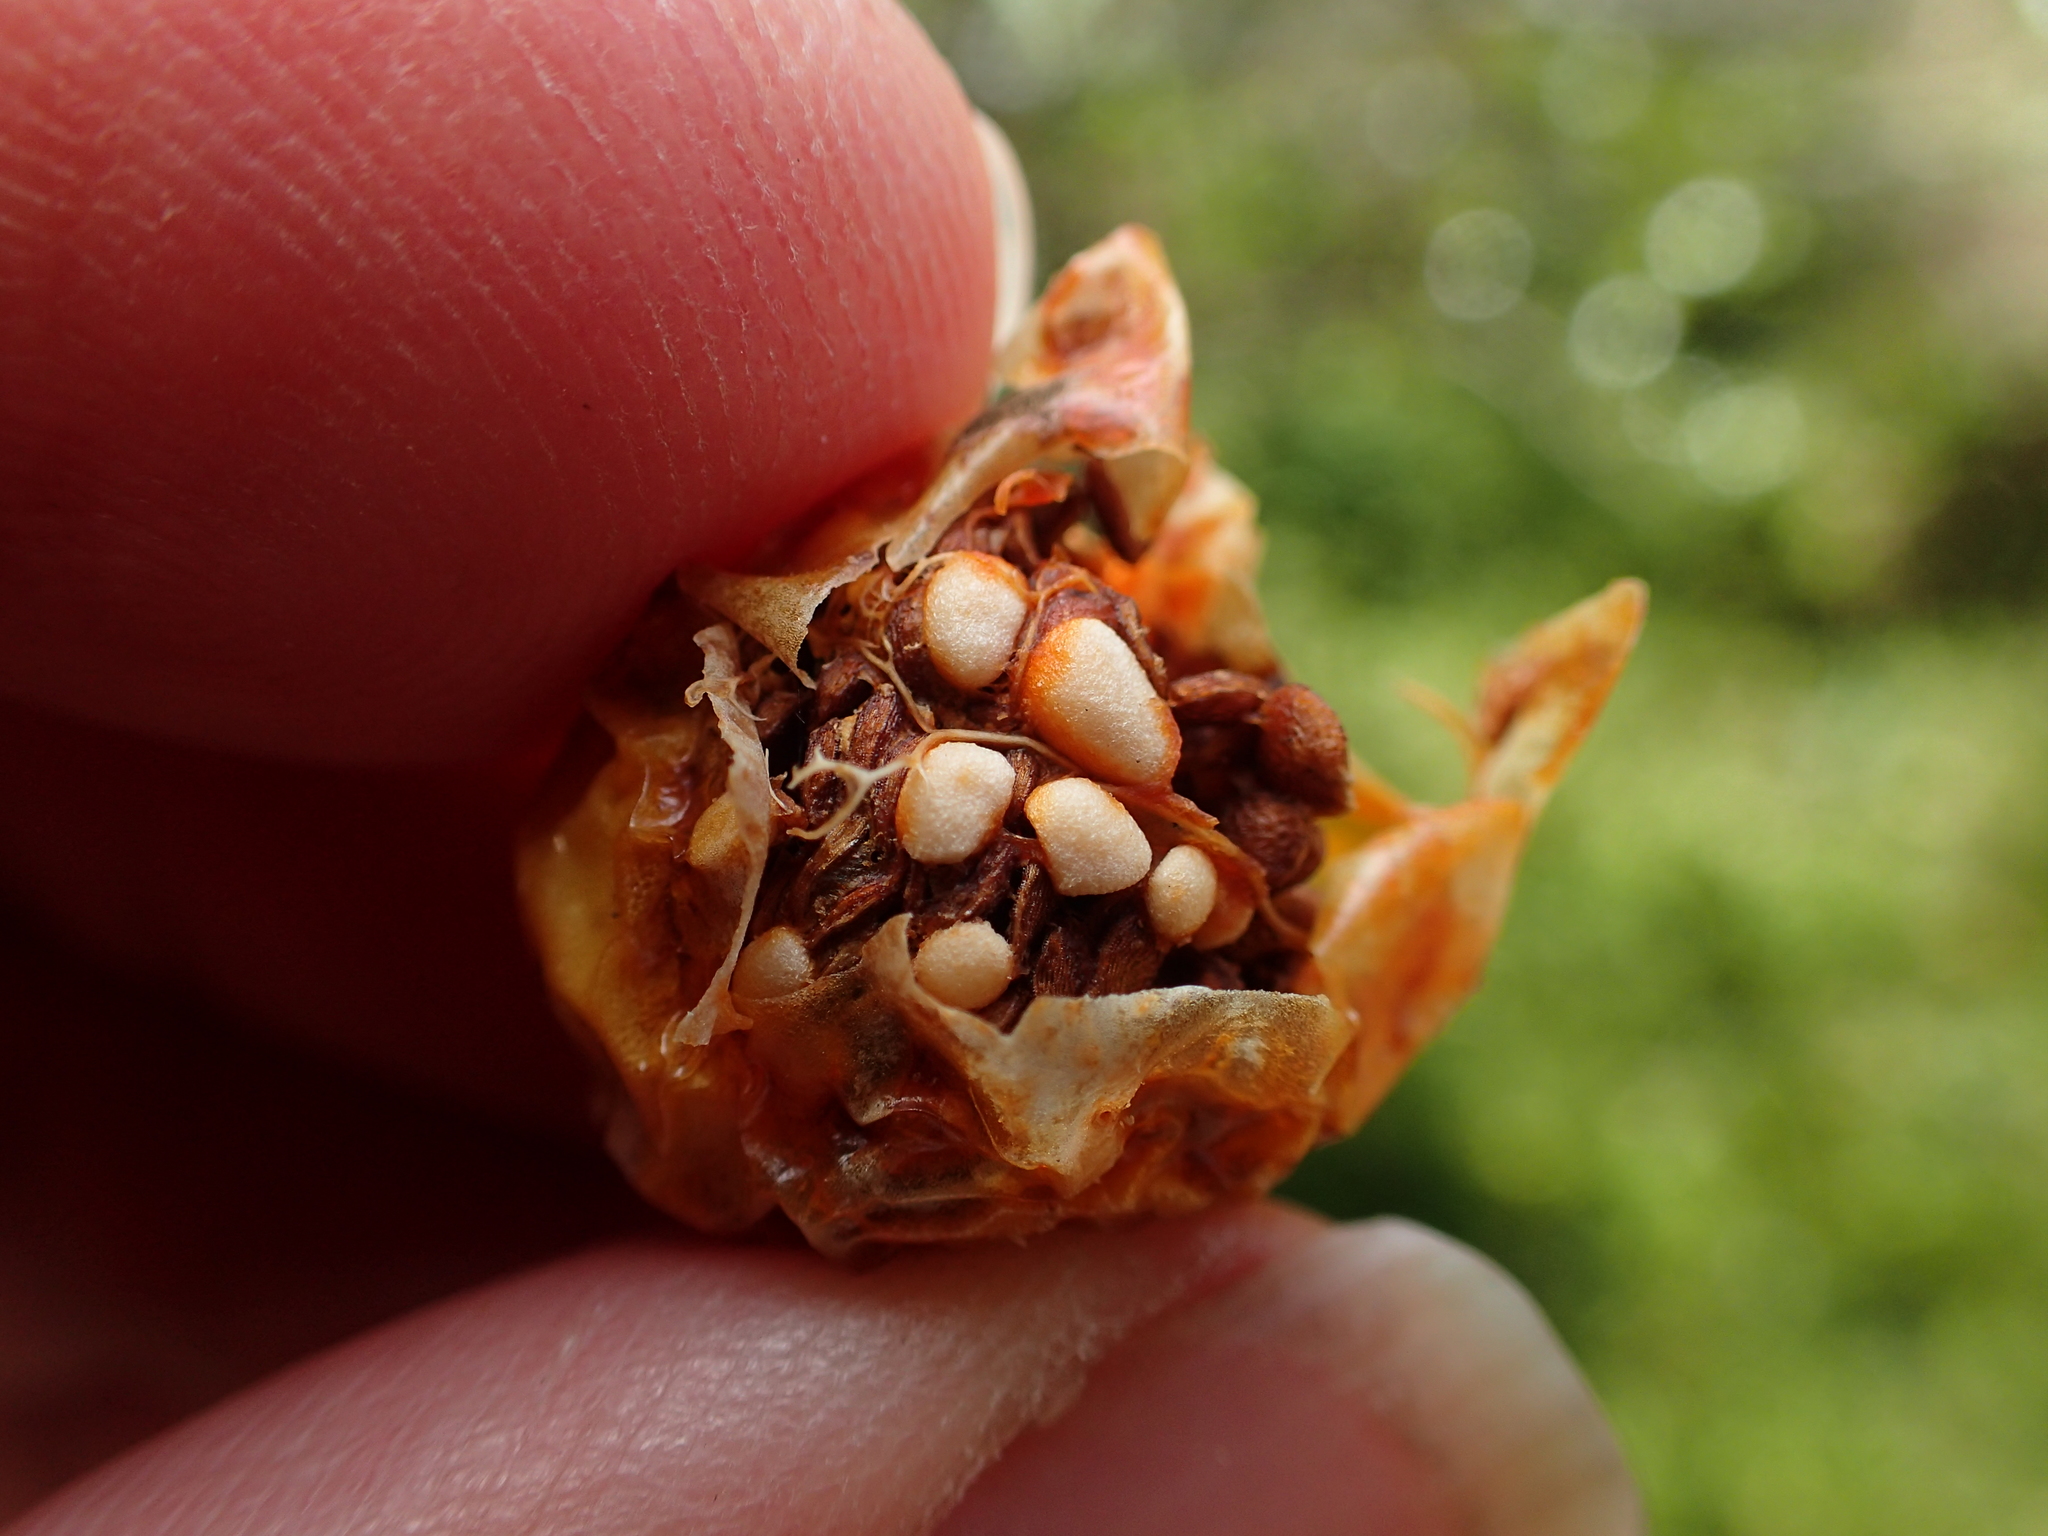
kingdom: Plantae
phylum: Tracheophyta
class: Magnoliopsida
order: Solanales
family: Solanaceae
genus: Solanum
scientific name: Solanum laciniatum
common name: Kangaroo-apple
